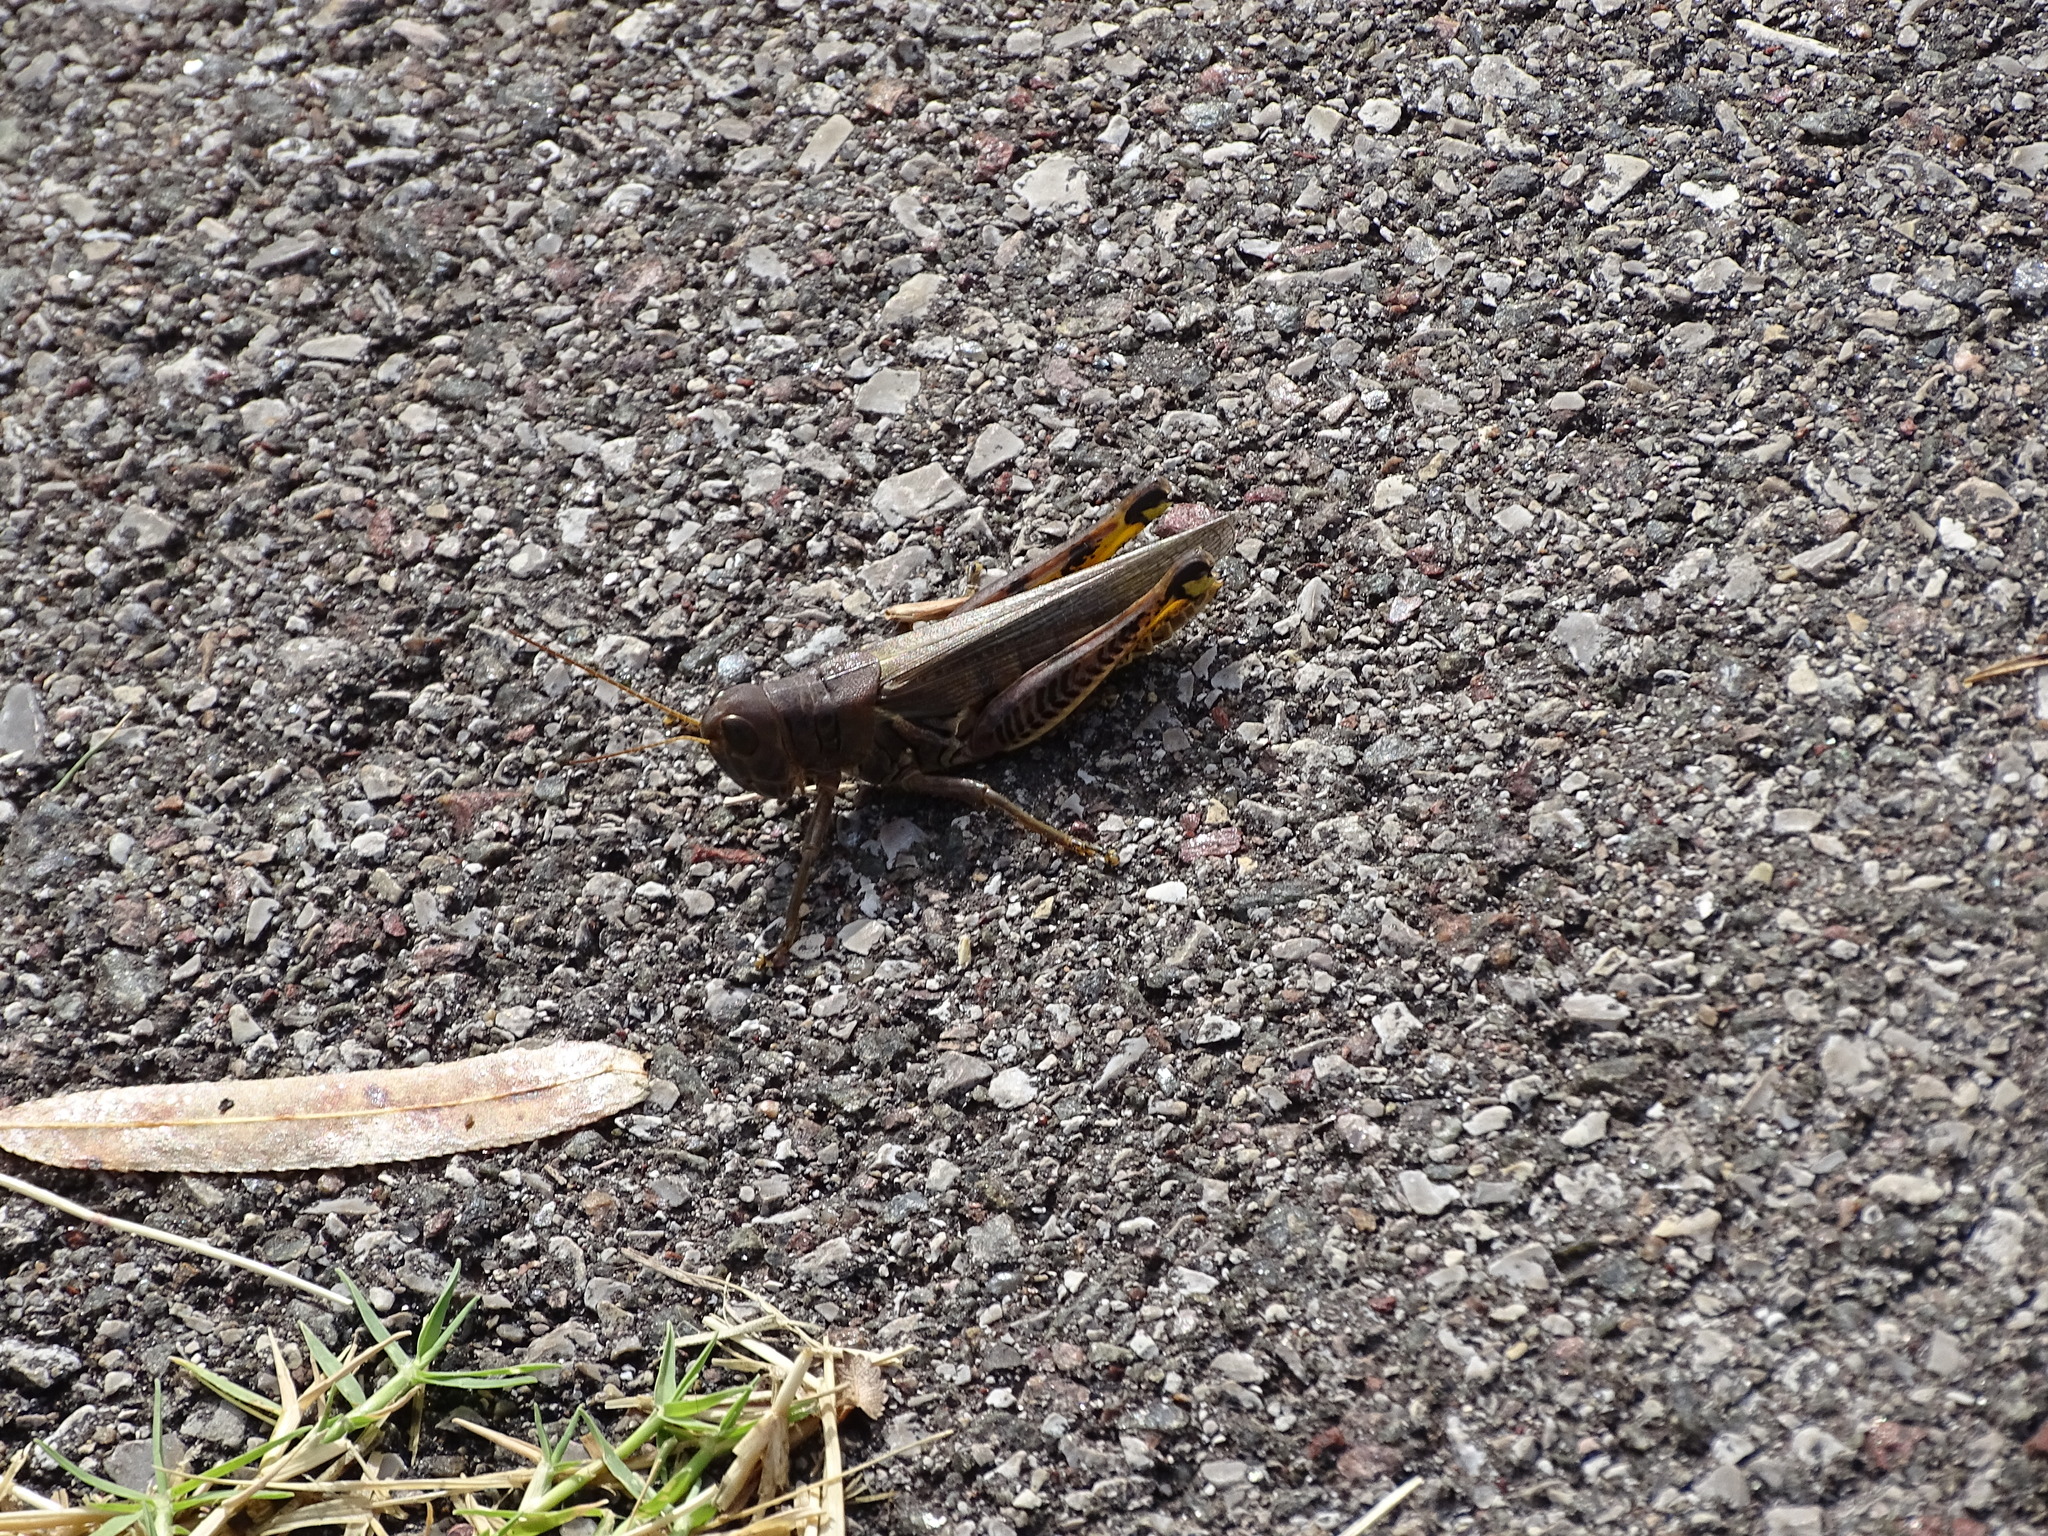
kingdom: Animalia
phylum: Arthropoda
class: Insecta
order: Orthoptera
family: Acrididae
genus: Melanoplus
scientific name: Melanoplus differentialis
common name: Differential grasshopper
